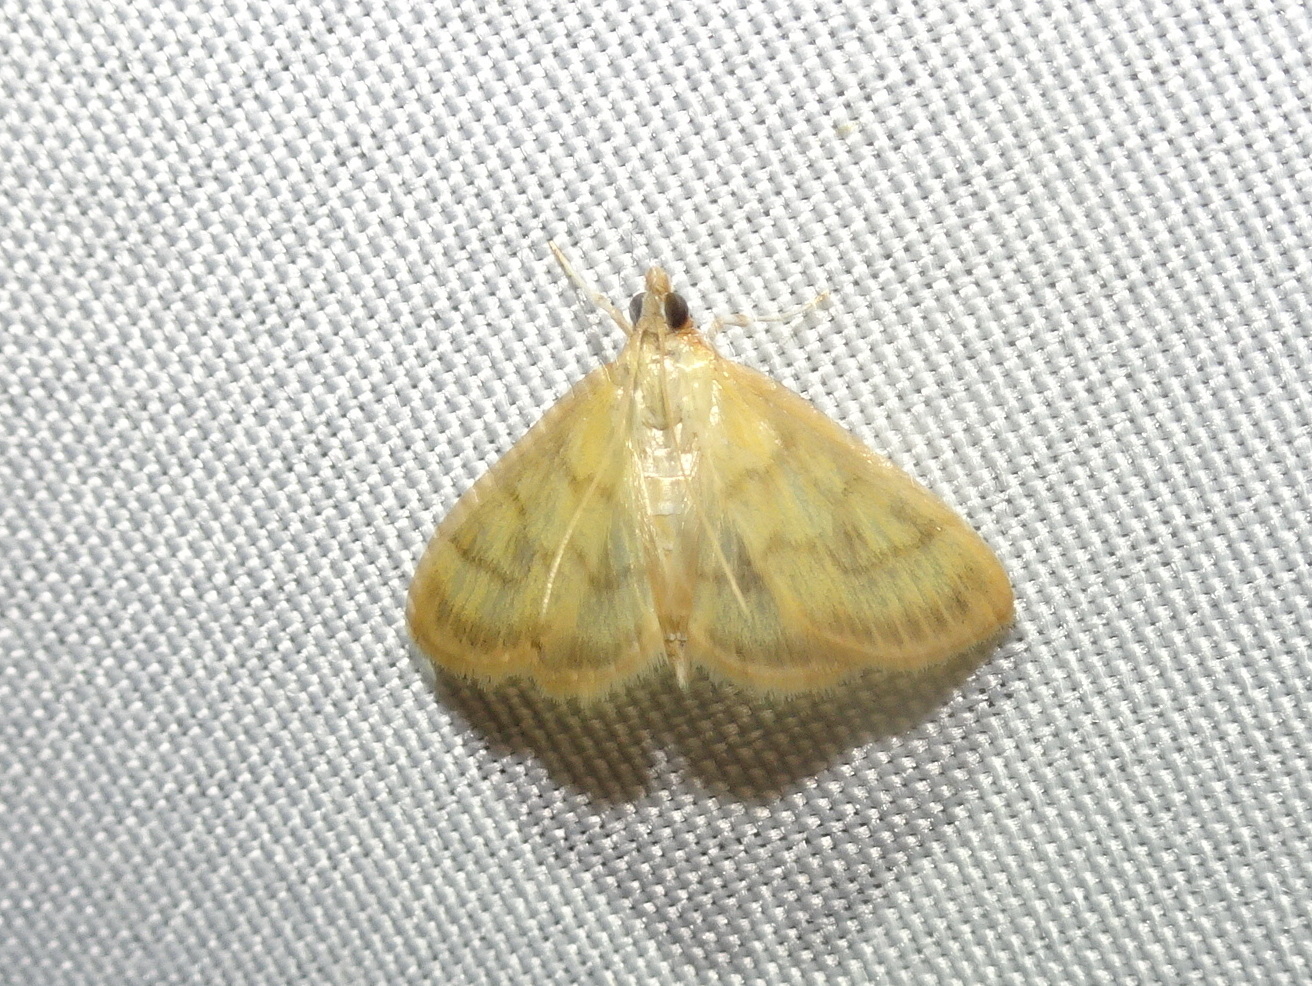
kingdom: Animalia
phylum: Arthropoda
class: Insecta
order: Lepidoptera
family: Crambidae
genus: Crocidophora
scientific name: Crocidophora tuberculalis
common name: Pale-winged crocidiphora moth
